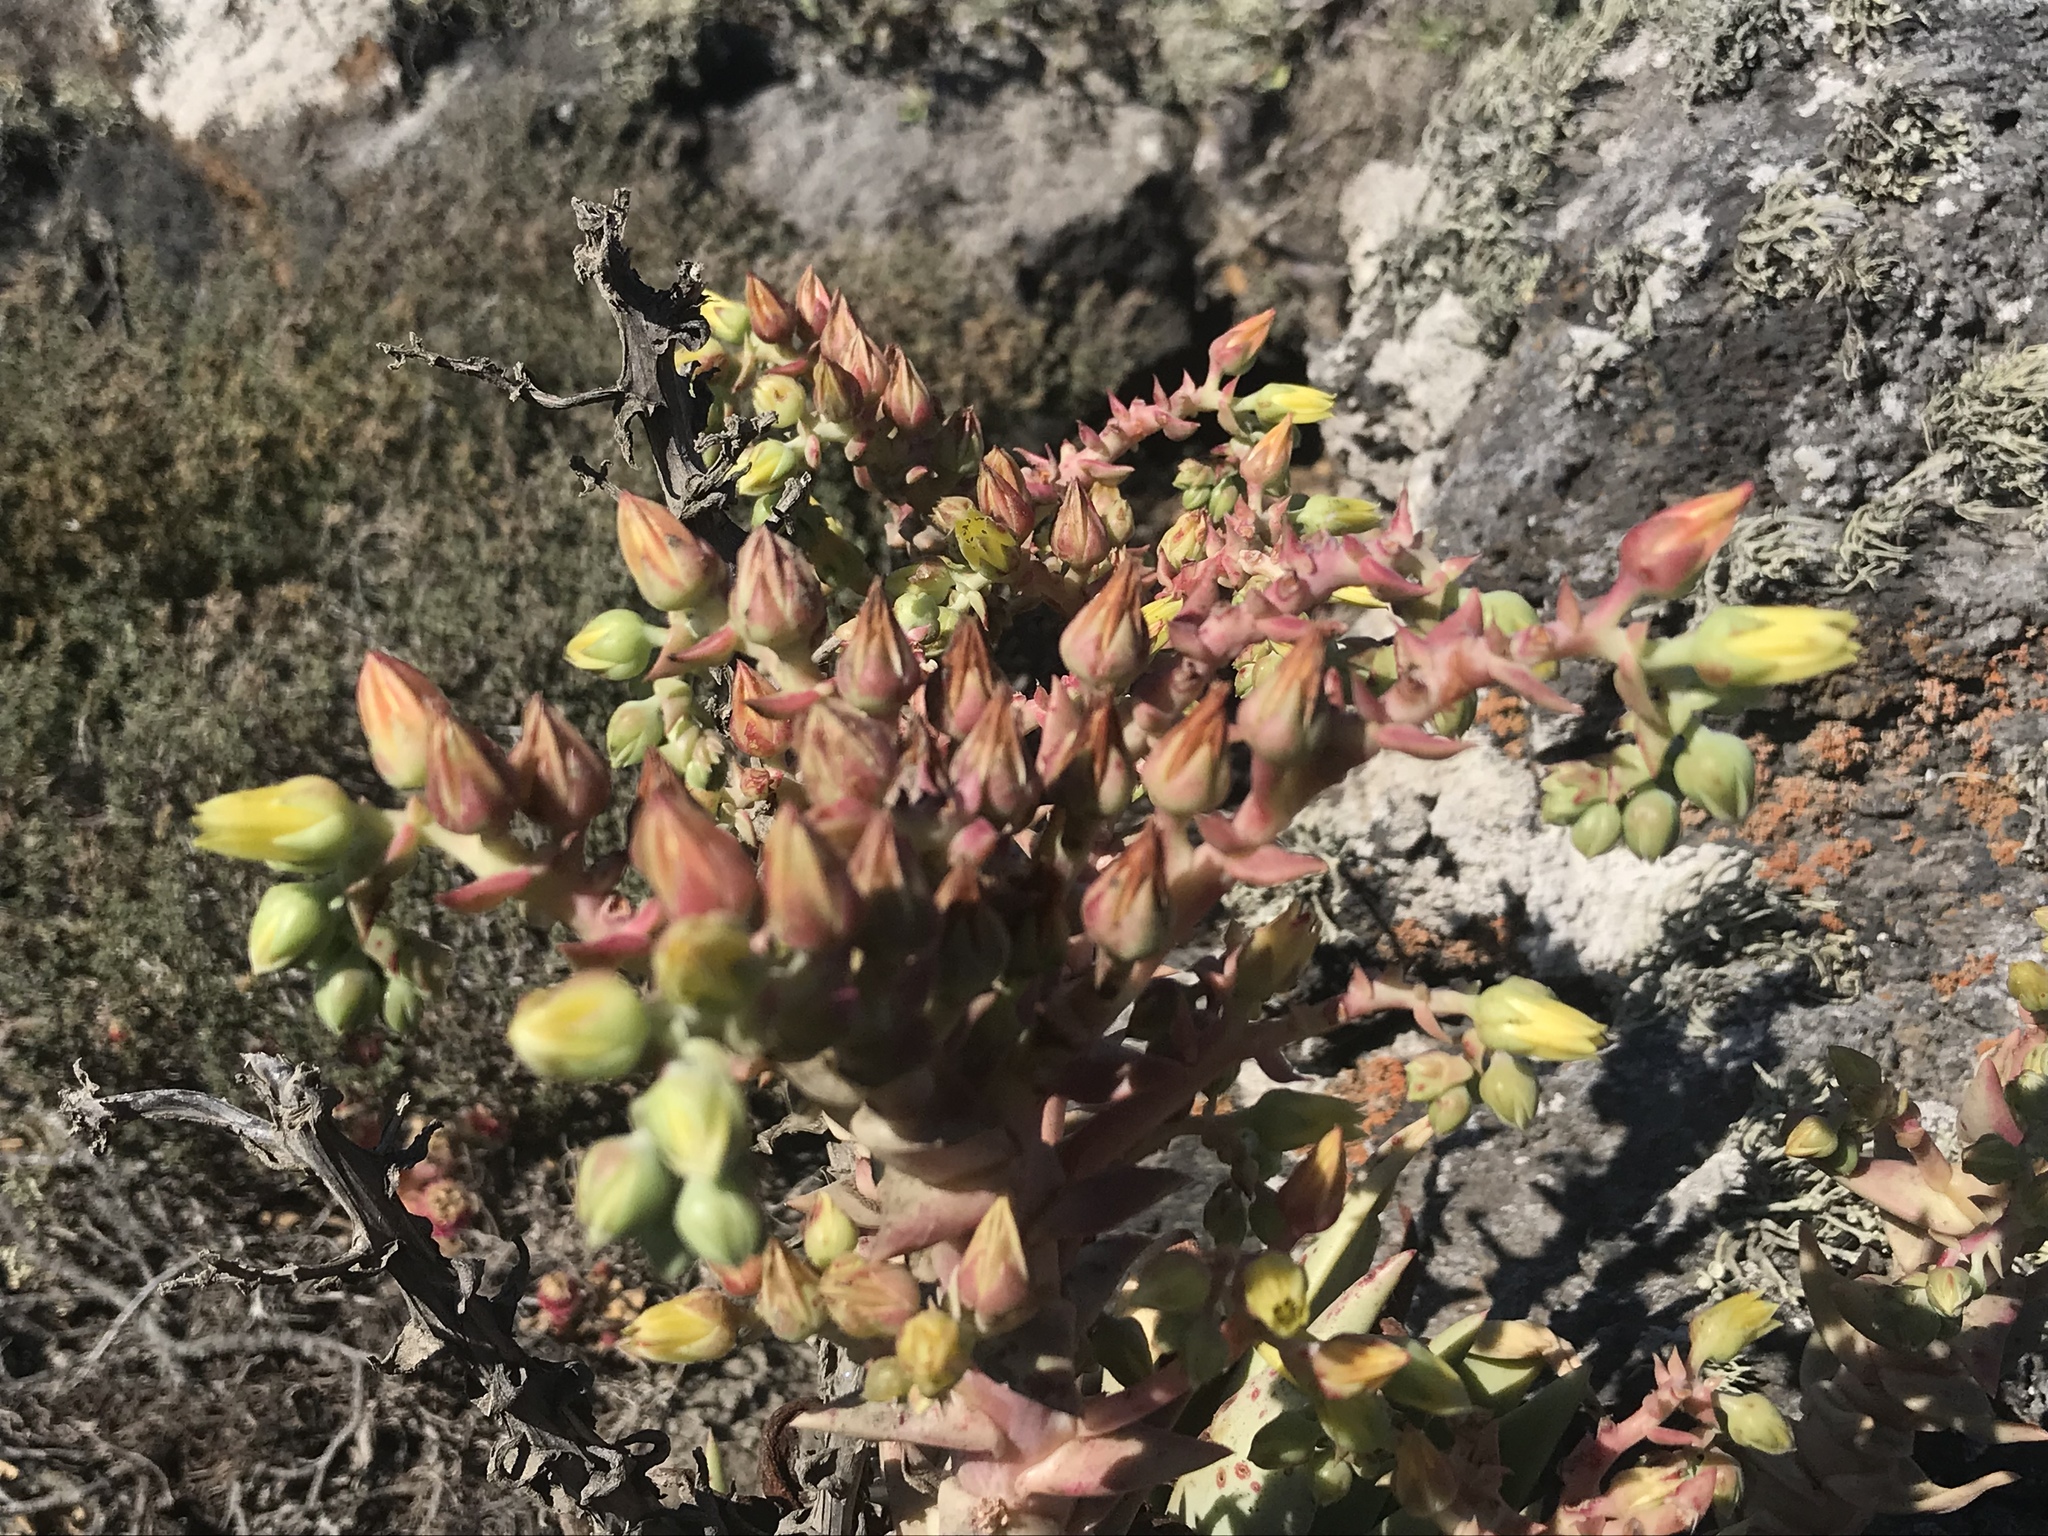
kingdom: Plantae
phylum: Tracheophyta
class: Magnoliopsida
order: Saxifragales
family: Crassulaceae
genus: Dudleya
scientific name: Dudleya cultrata
